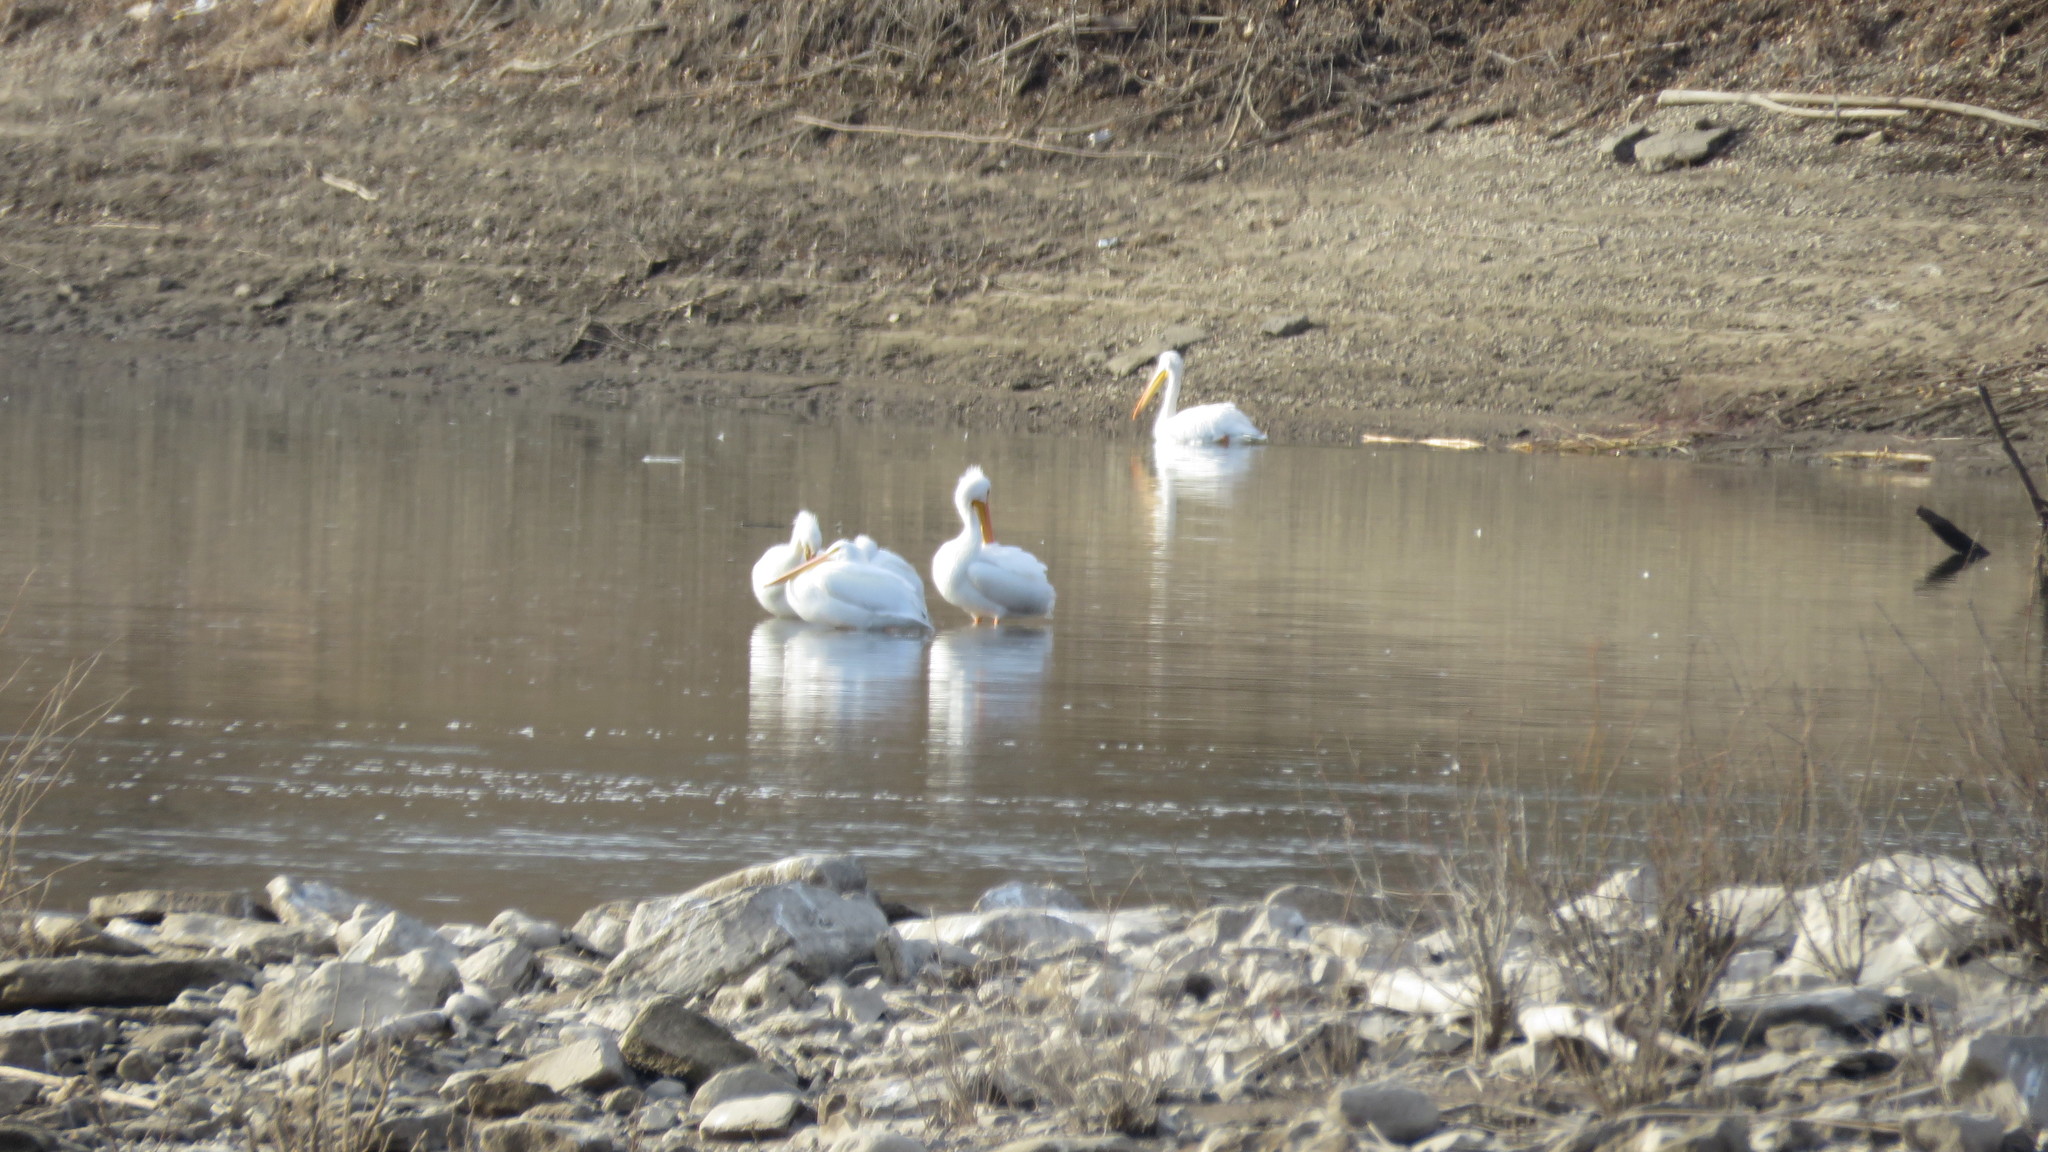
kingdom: Animalia
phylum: Chordata
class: Aves
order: Pelecaniformes
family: Pelecanidae
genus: Pelecanus
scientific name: Pelecanus erythrorhynchos
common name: American white pelican
